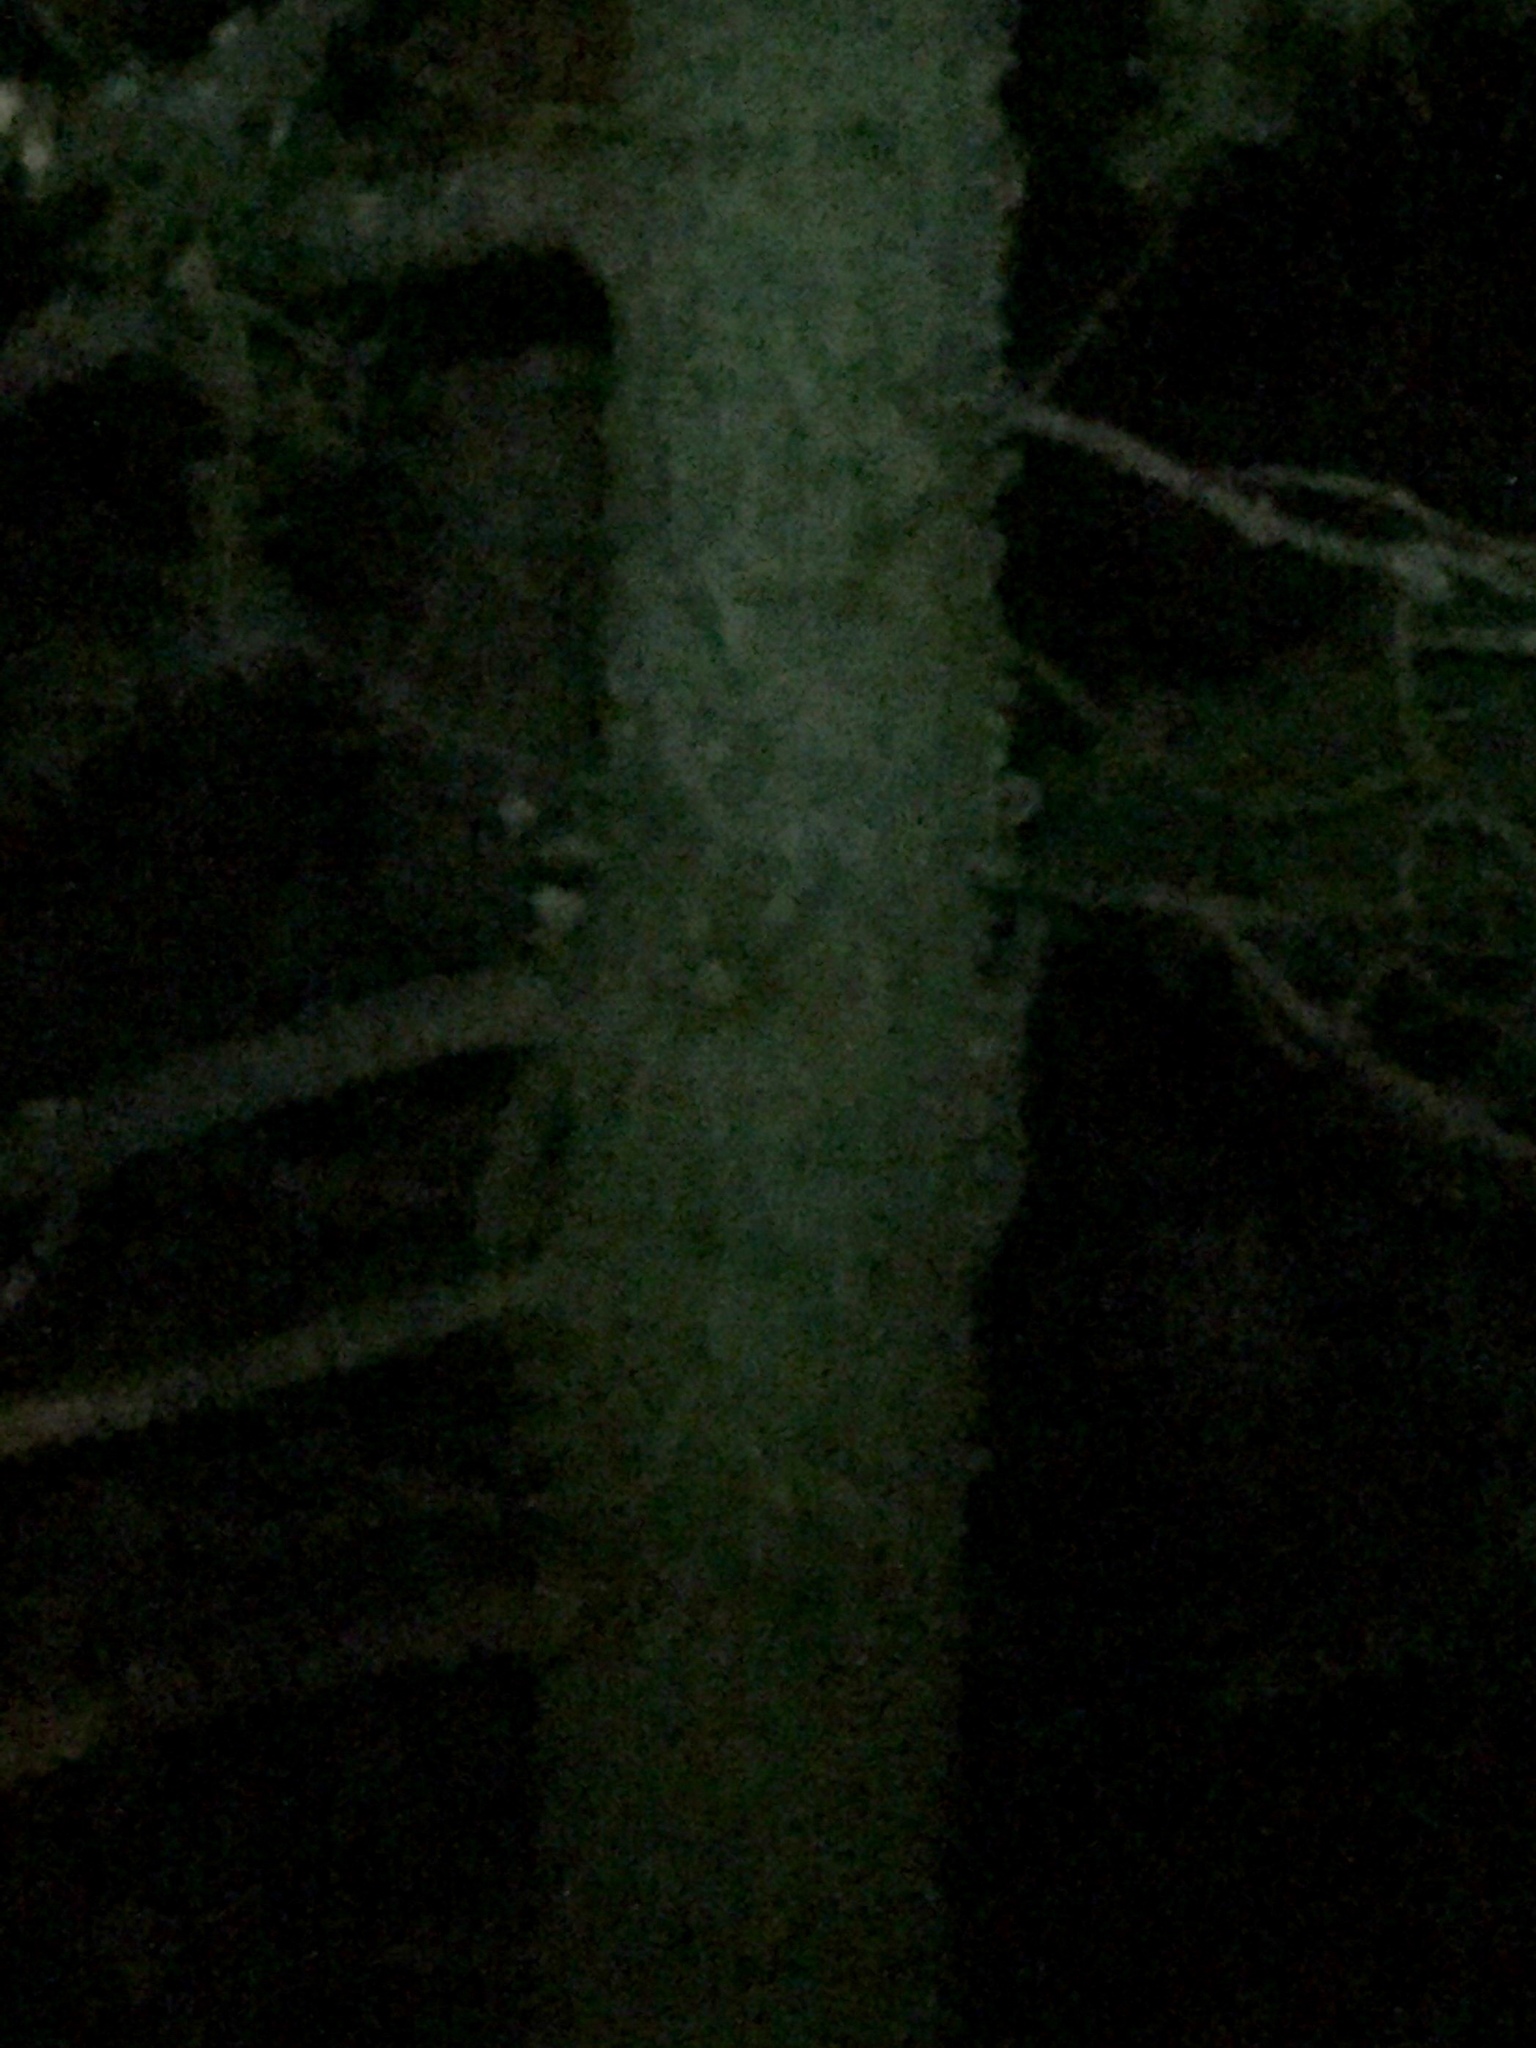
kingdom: Animalia
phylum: Chordata
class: Mammalia
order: Carnivora
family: Procyonidae
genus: Procyon
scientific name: Procyon lotor
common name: Raccoon
